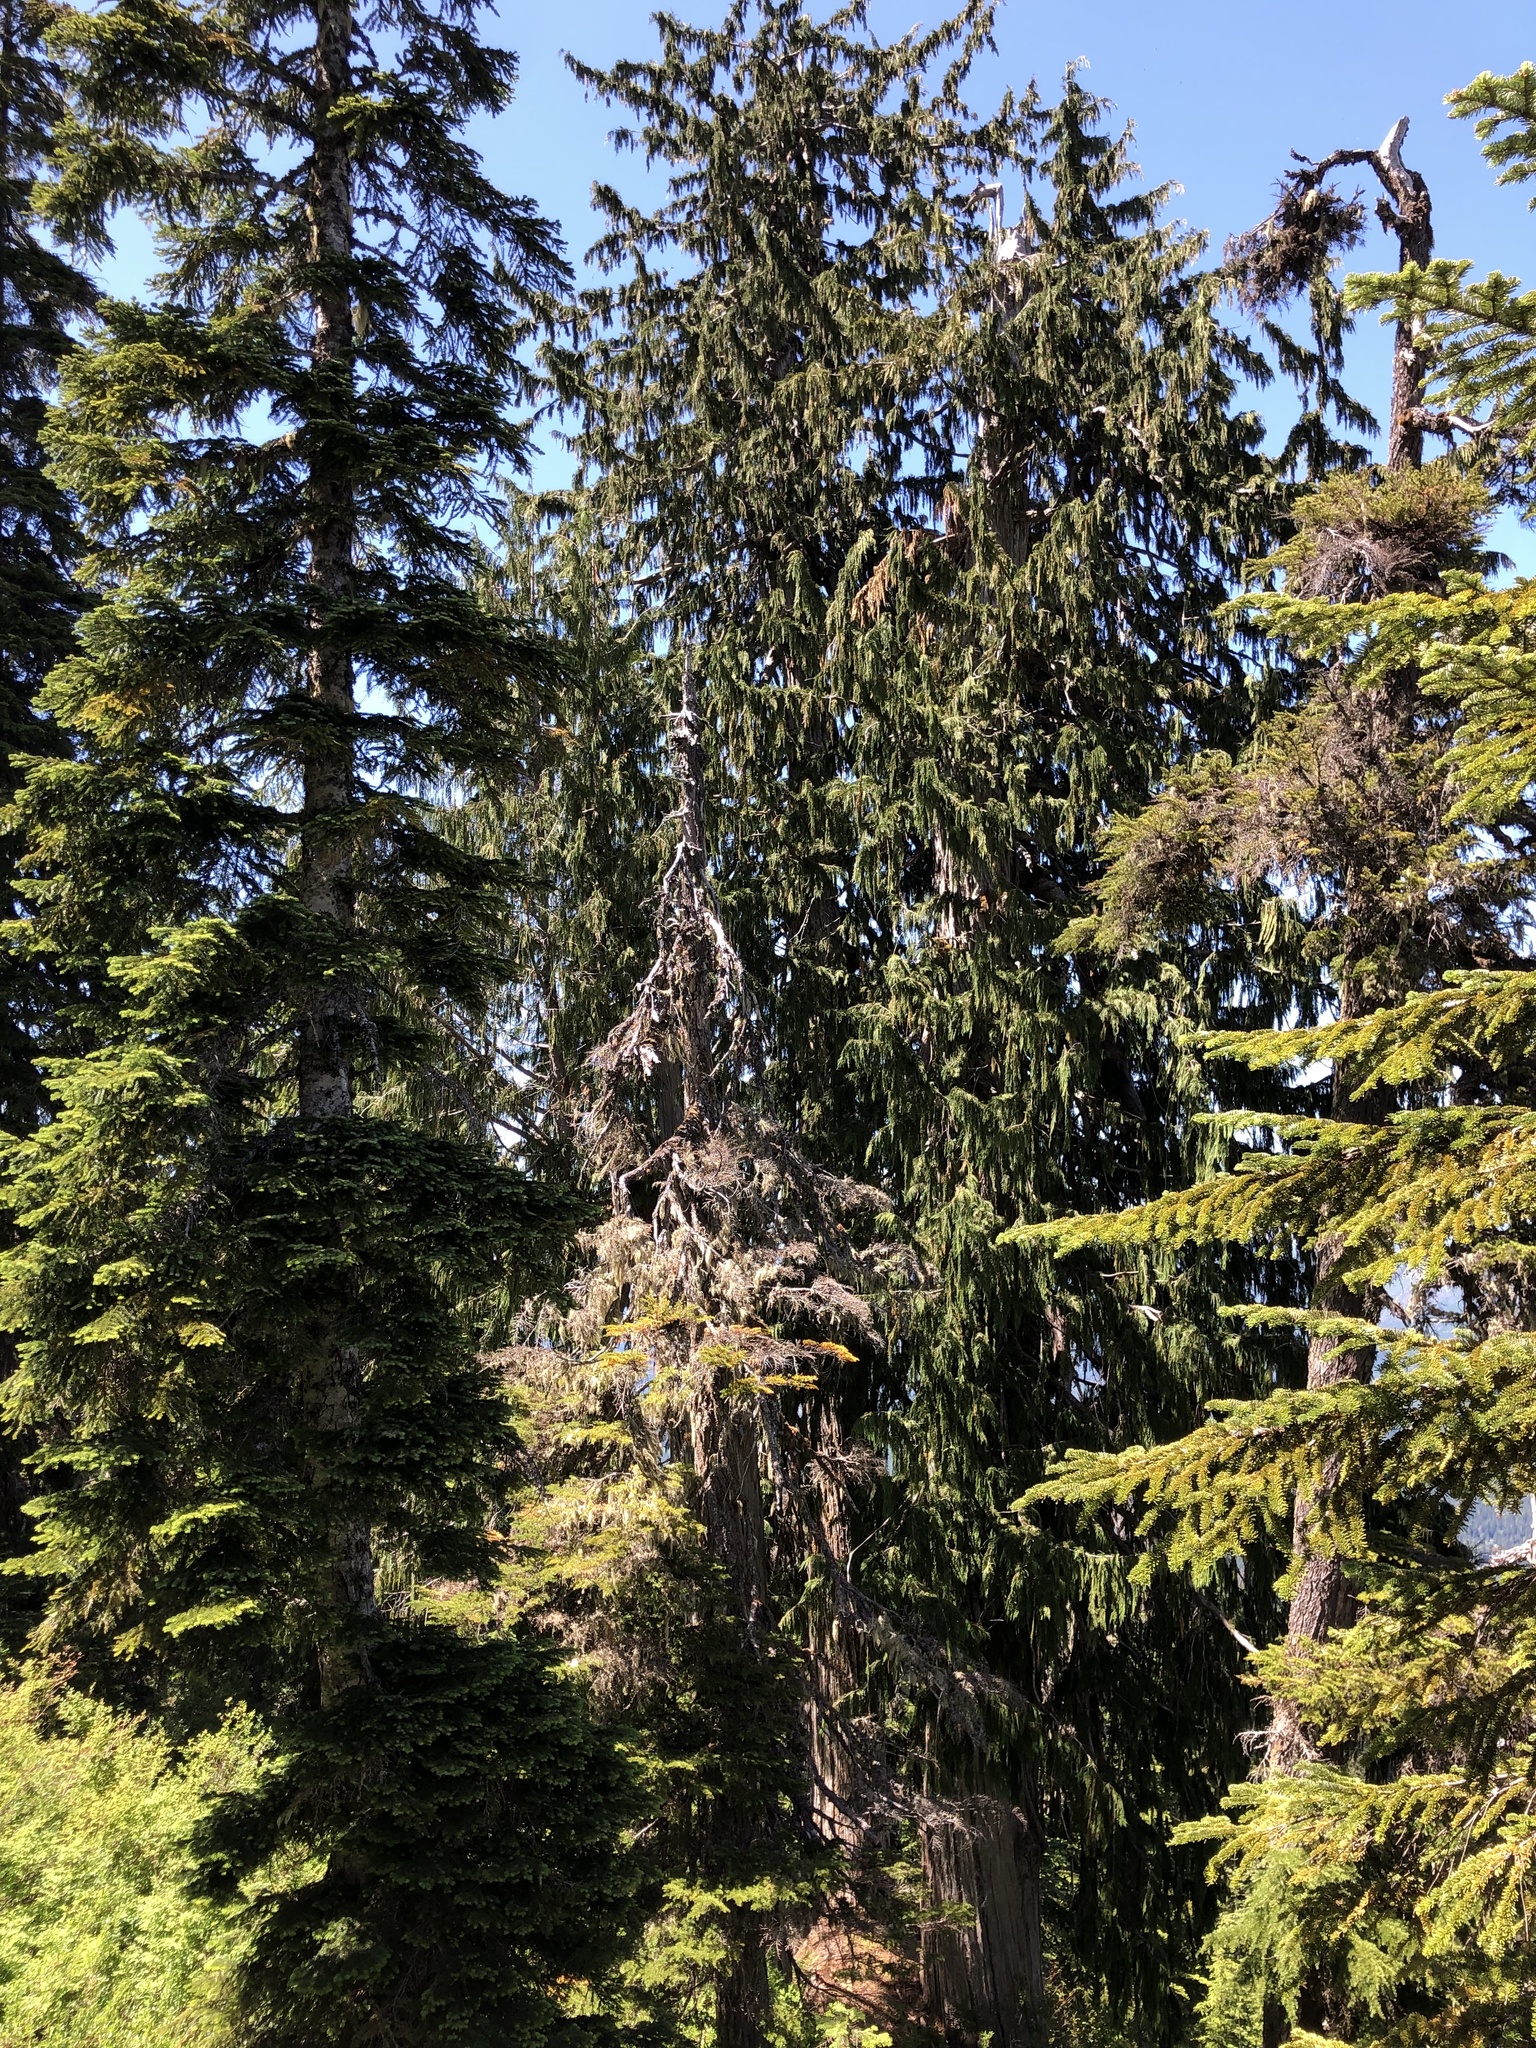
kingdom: Plantae
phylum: Tracheophyta
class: Pinopsida
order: Pinales
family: Cupressaceae
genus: Xanthocyparis
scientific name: Xanthocyparis nootkatensis
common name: Nootka cypress
